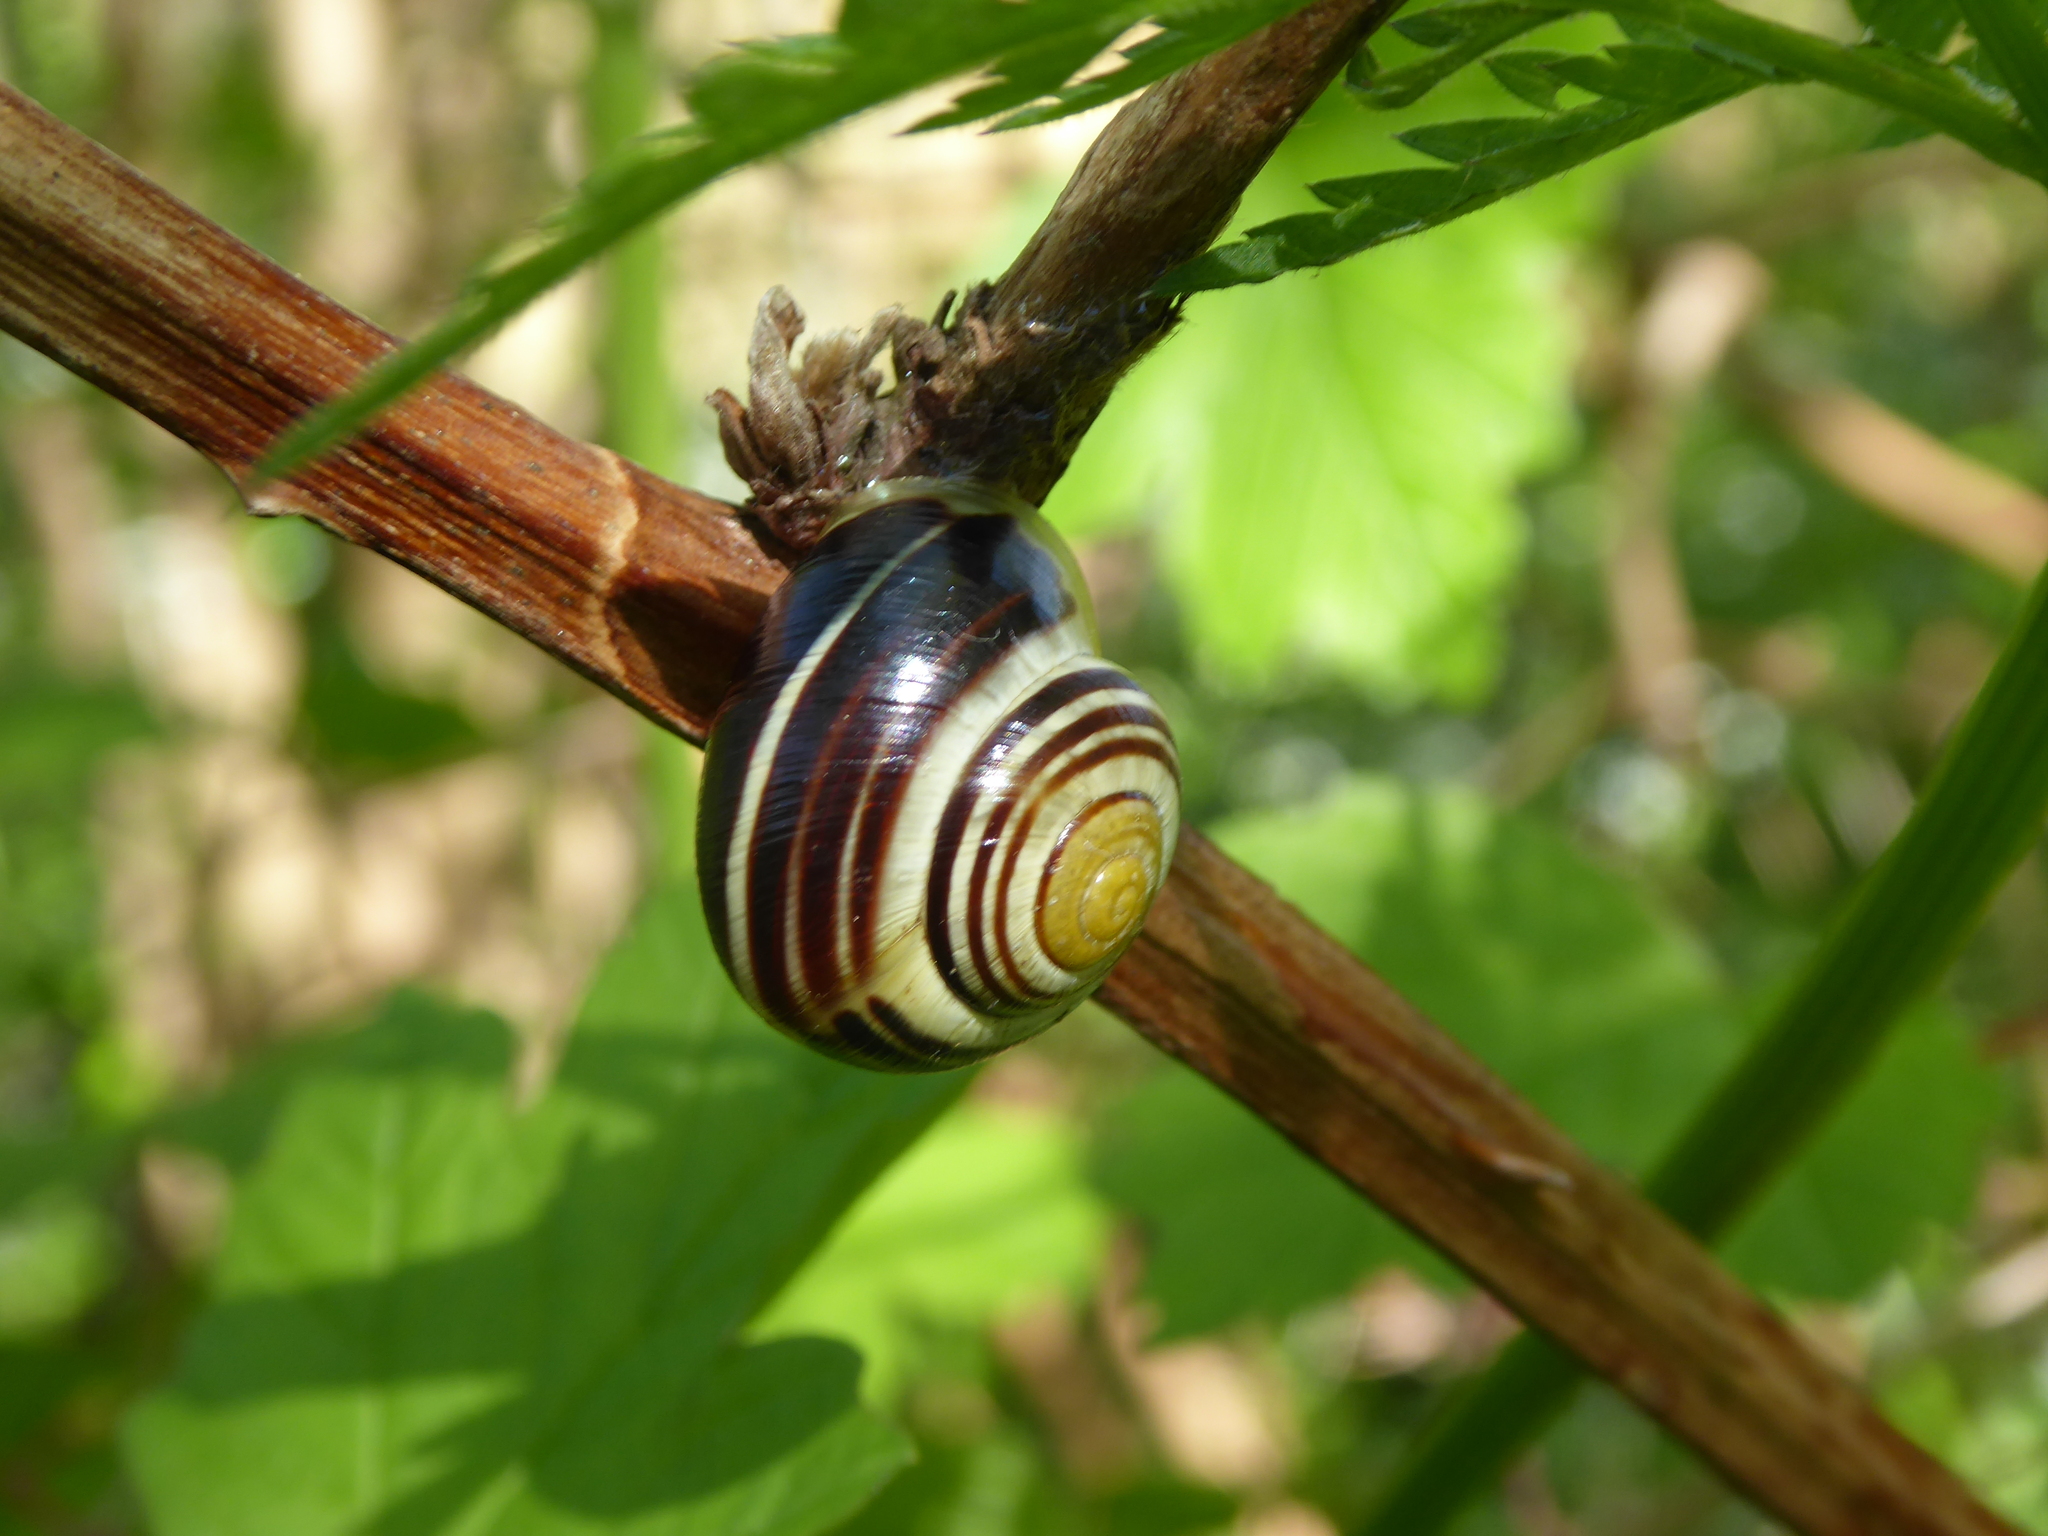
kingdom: Animalia
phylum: Mollusca
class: Gastropoda
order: Stylommatophora
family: Helicidae
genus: Cepaea
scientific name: Cepaea hortensis
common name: White-lip gardensnail
